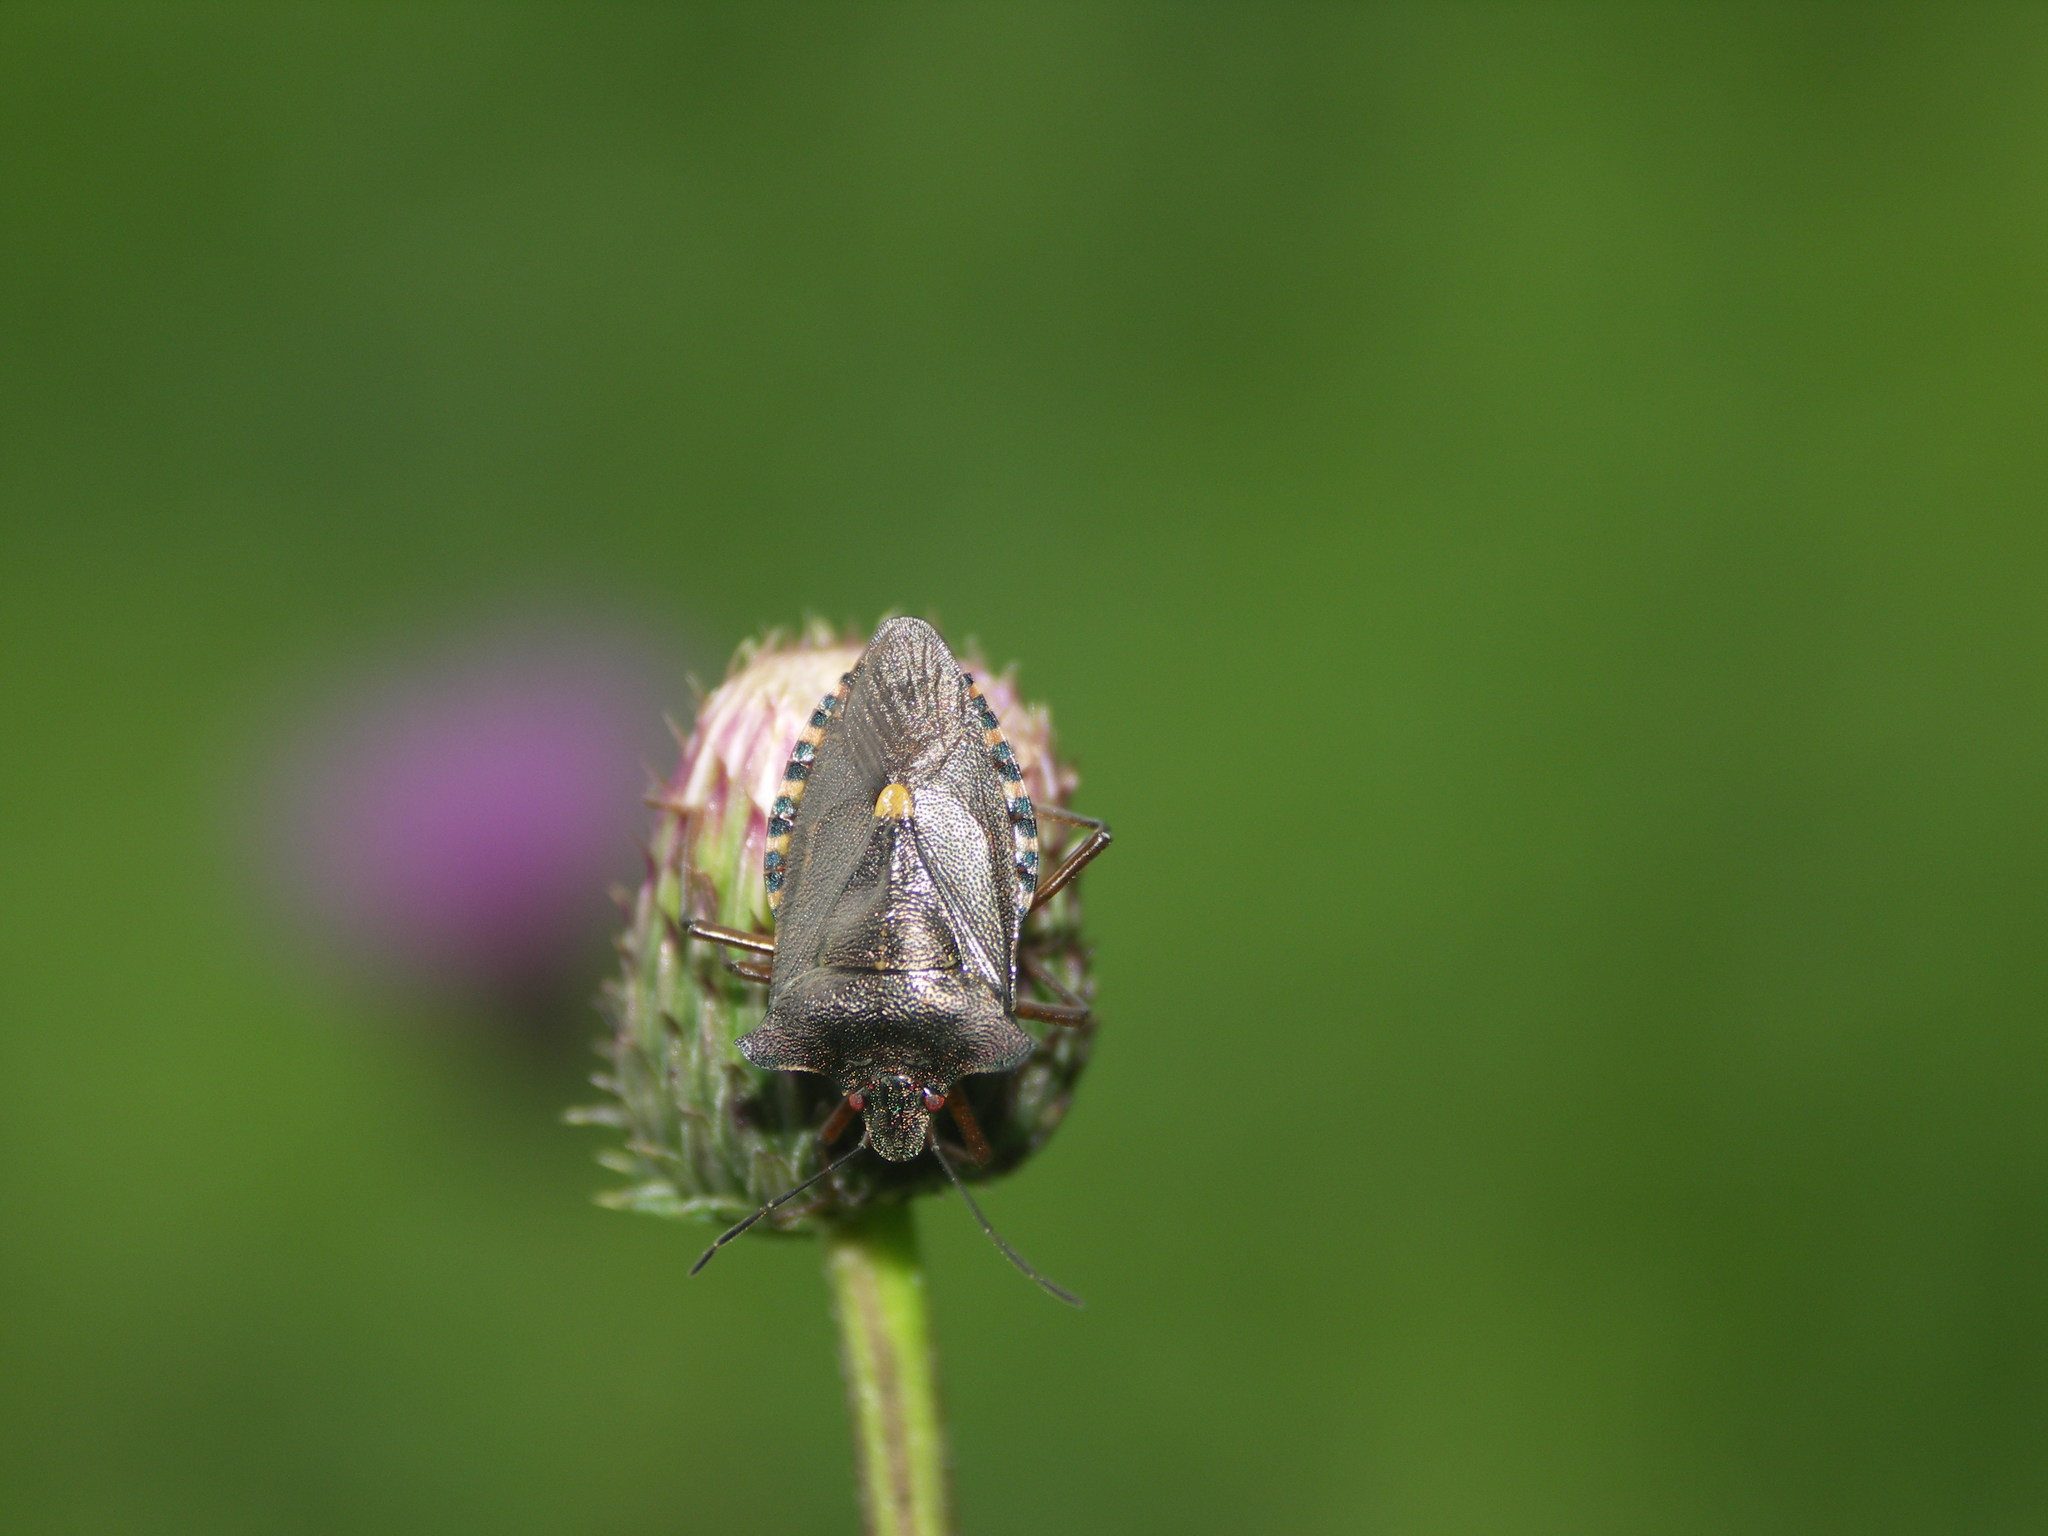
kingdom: Animalia
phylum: Arthropoda
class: Insecta
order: Hemiptera
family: Pentatomidae
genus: Pentatoma
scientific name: Pentatoma rufipes
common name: Forest bug
